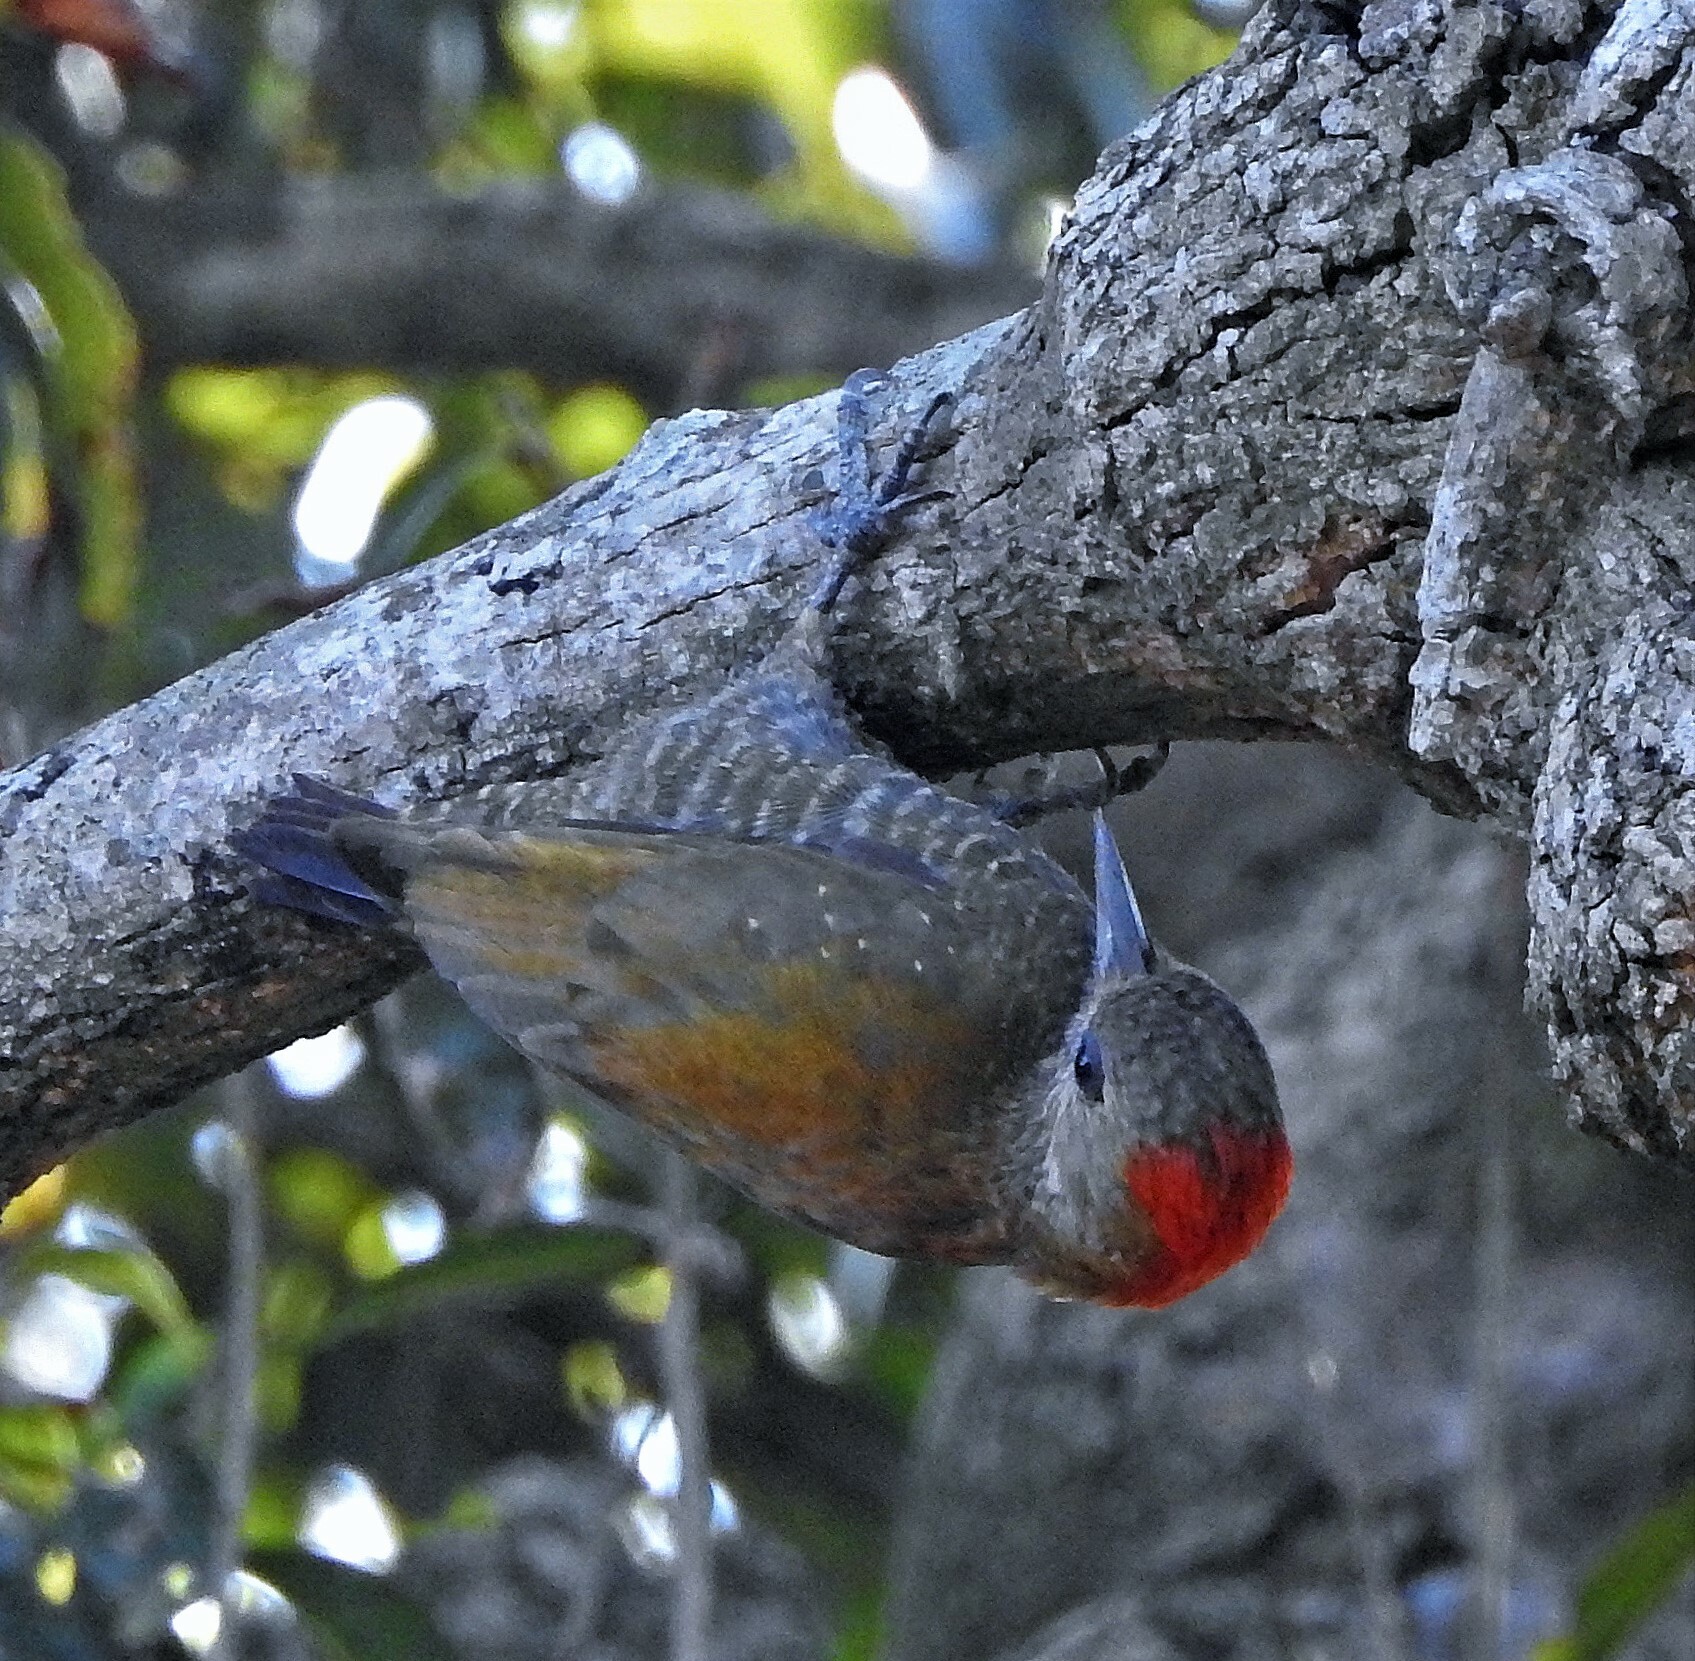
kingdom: Animalia
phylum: Chordata
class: Aves
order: Piciformes
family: Picidae
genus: Veniliornis
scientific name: Veniliornis passerinus
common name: Little woodpecker
